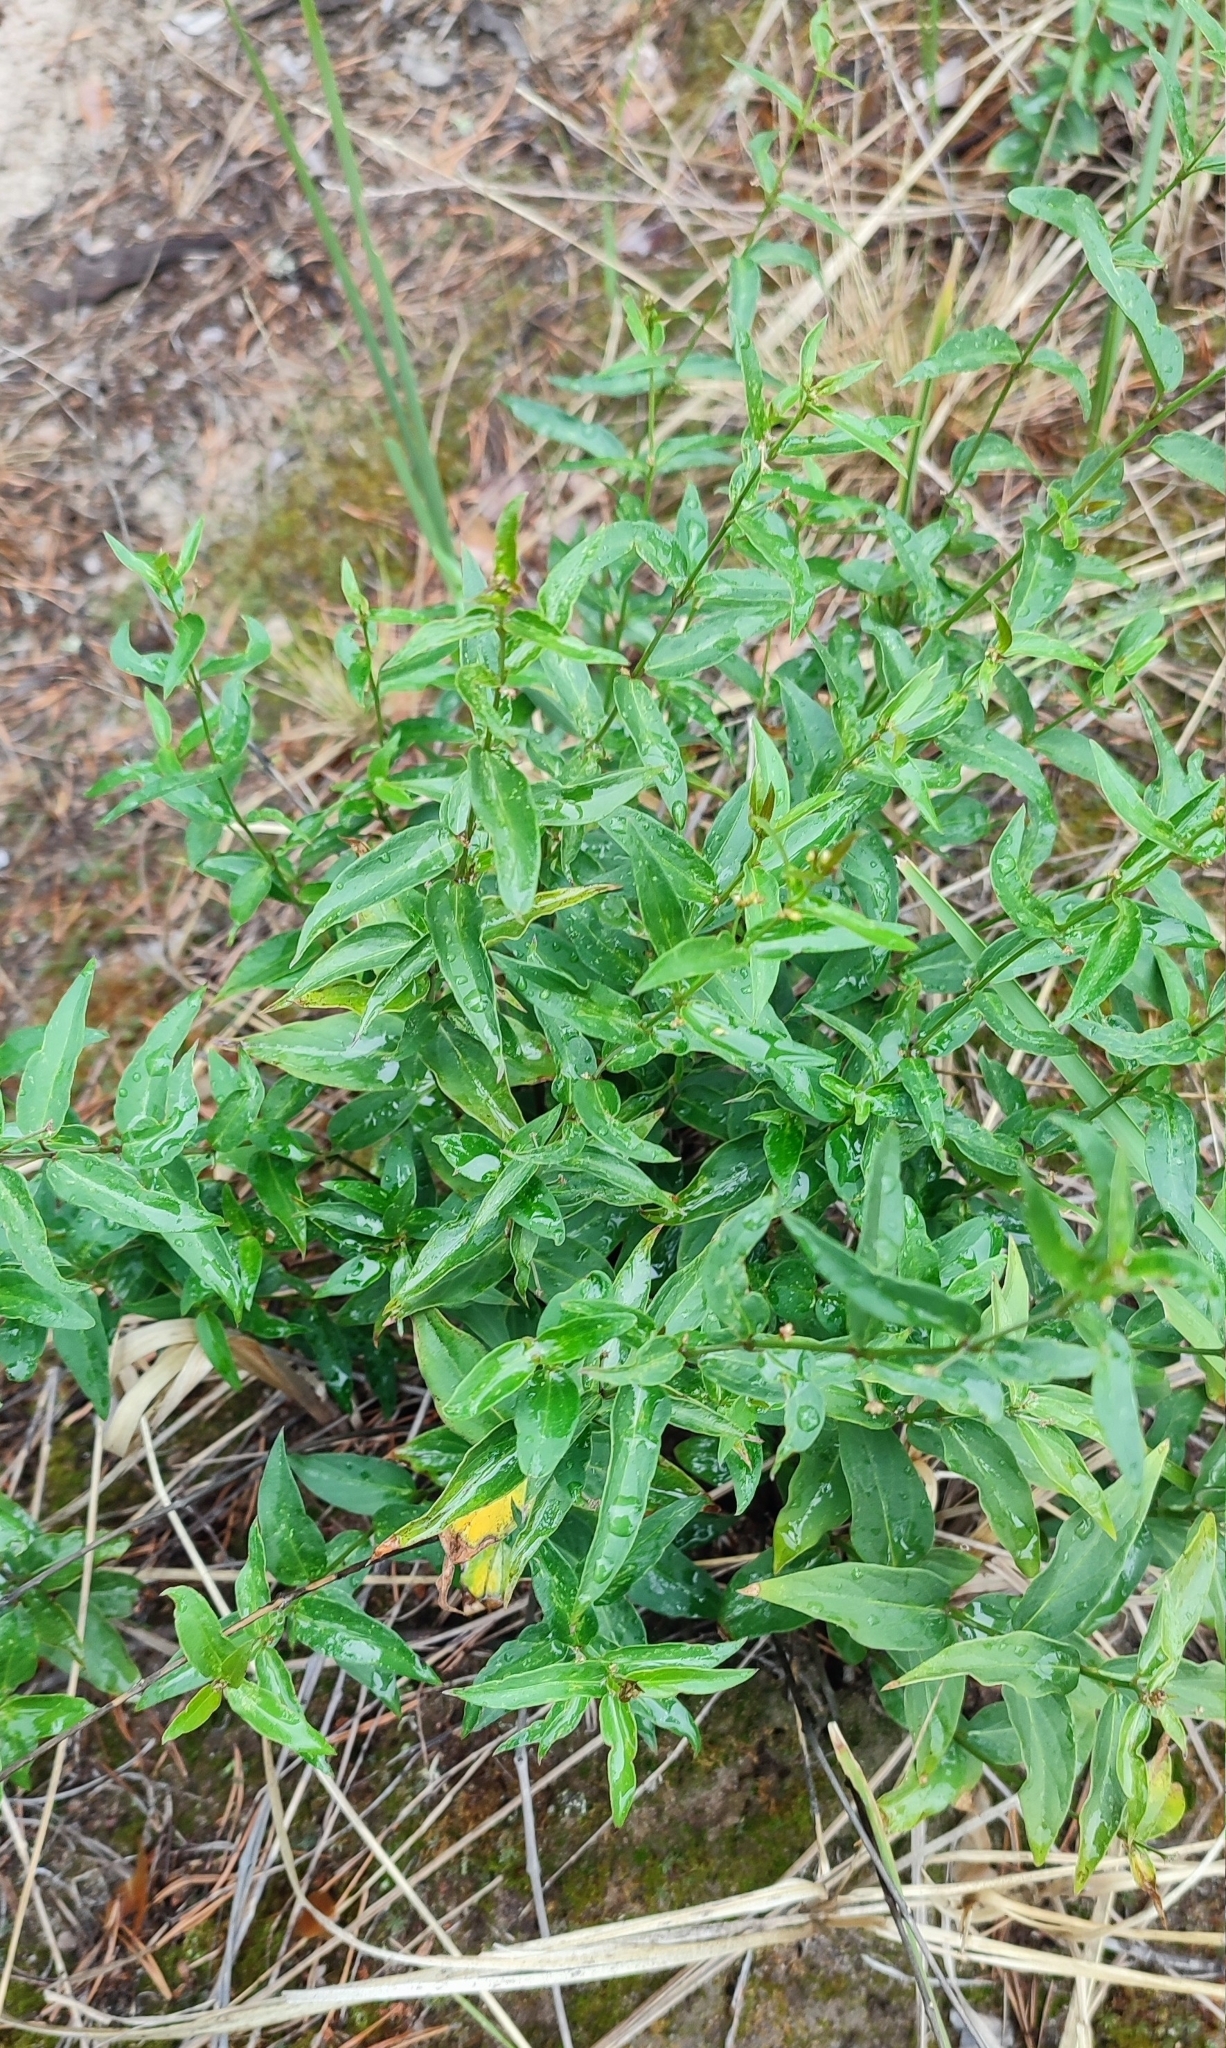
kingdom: Plantae
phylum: Tracheophyta
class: Magnoliopsida
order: Gentianales
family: Apocynaceae
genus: Vincetoxicum
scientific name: Vincetoxicum hirundinaria
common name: White swallowwort
